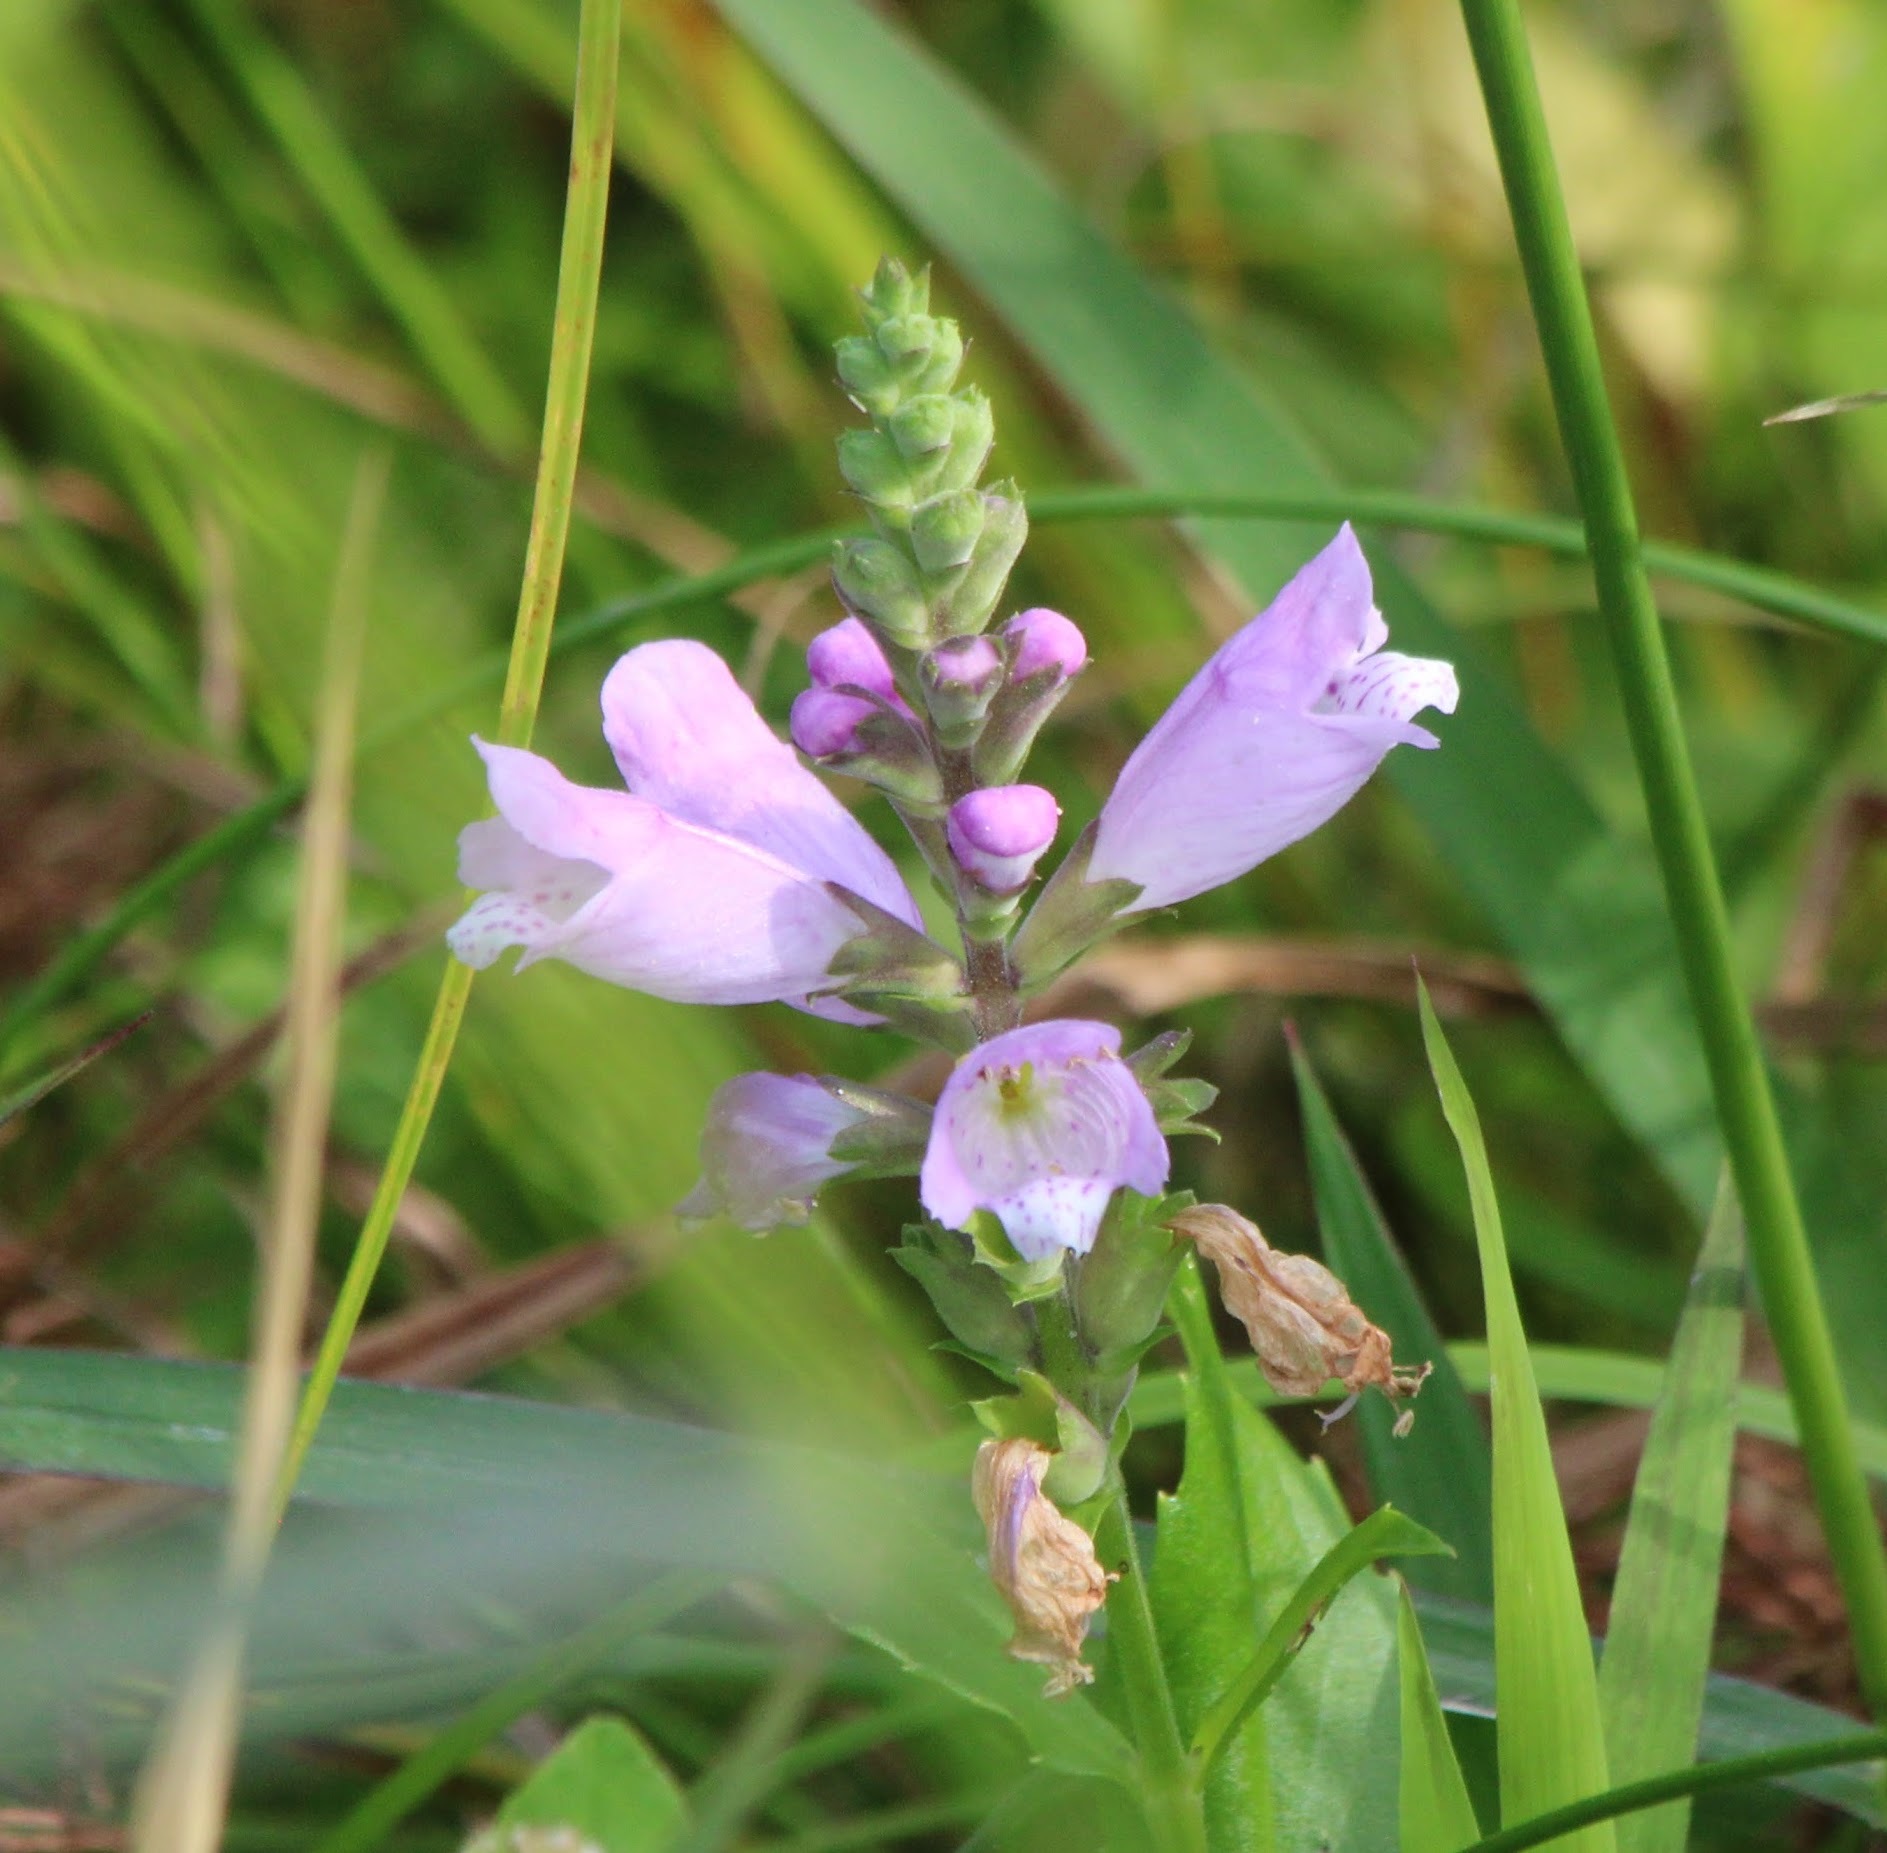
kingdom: Plantae
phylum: Tracheophyta
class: Magnoliopsida
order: Lamiales
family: Lamiaceae
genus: Physostegia
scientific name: Physostegia virginiana
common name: Obedient-plant
